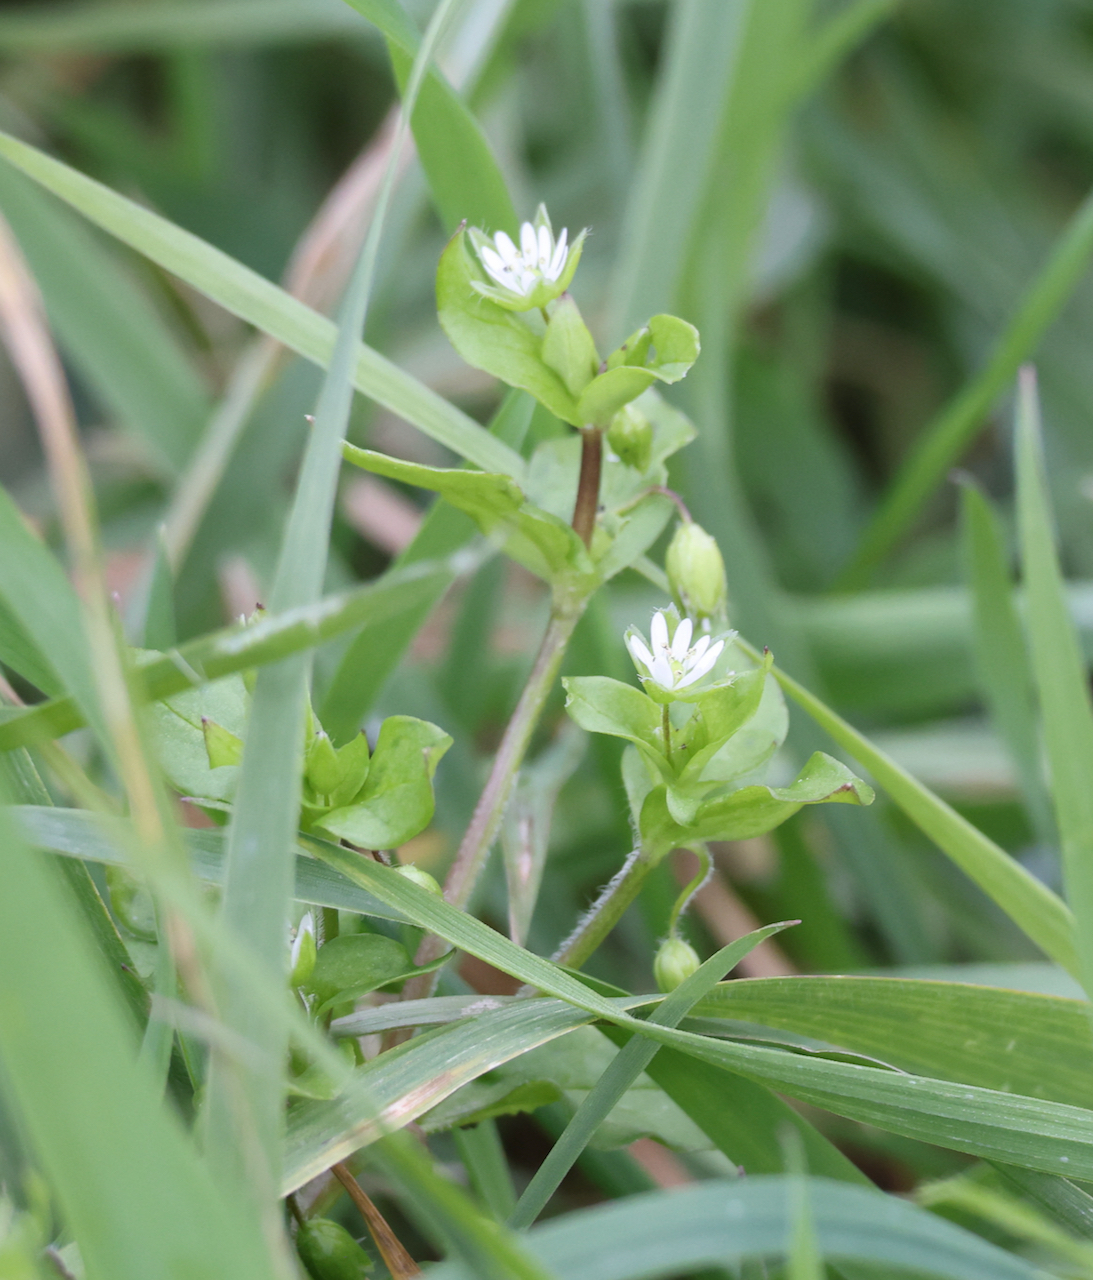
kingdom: Plantae
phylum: Tracheophyta
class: Magnoliopsida
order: Caryophyllales
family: Caryophyllaceae
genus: Stellaria
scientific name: Stellaria media
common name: Common chickweed
